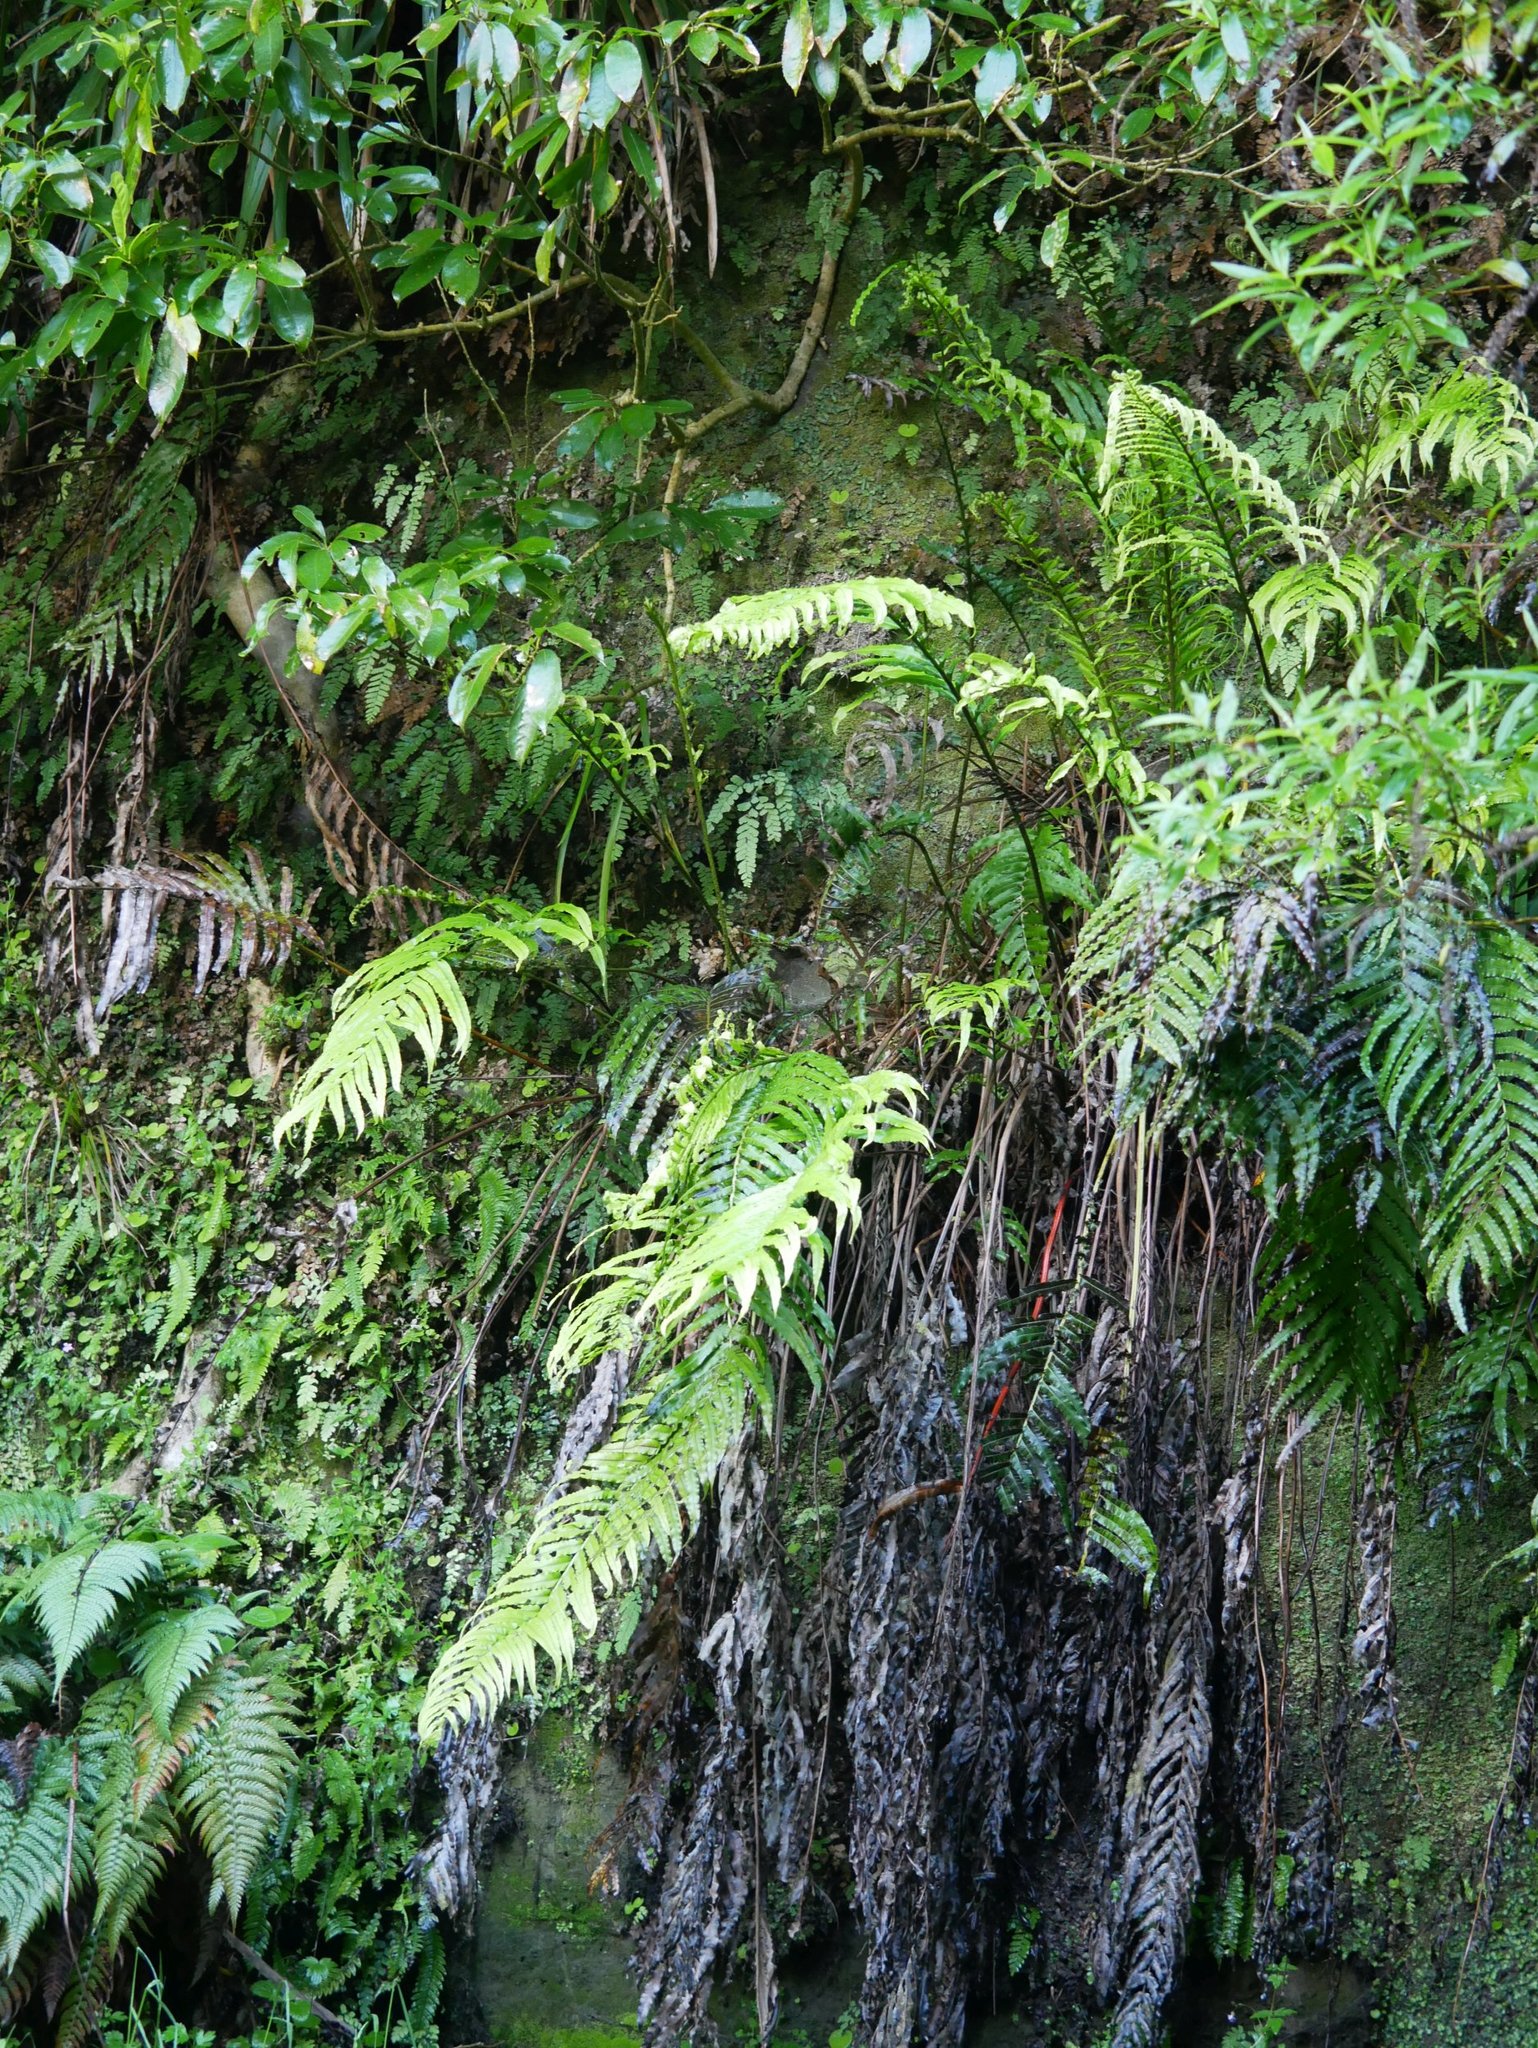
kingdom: Plantae
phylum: Tracheophyta
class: Polypodiopsida
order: Polypodiales
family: Blechnaceae
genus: Parablechnum
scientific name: Parablechnum triangularifolium
